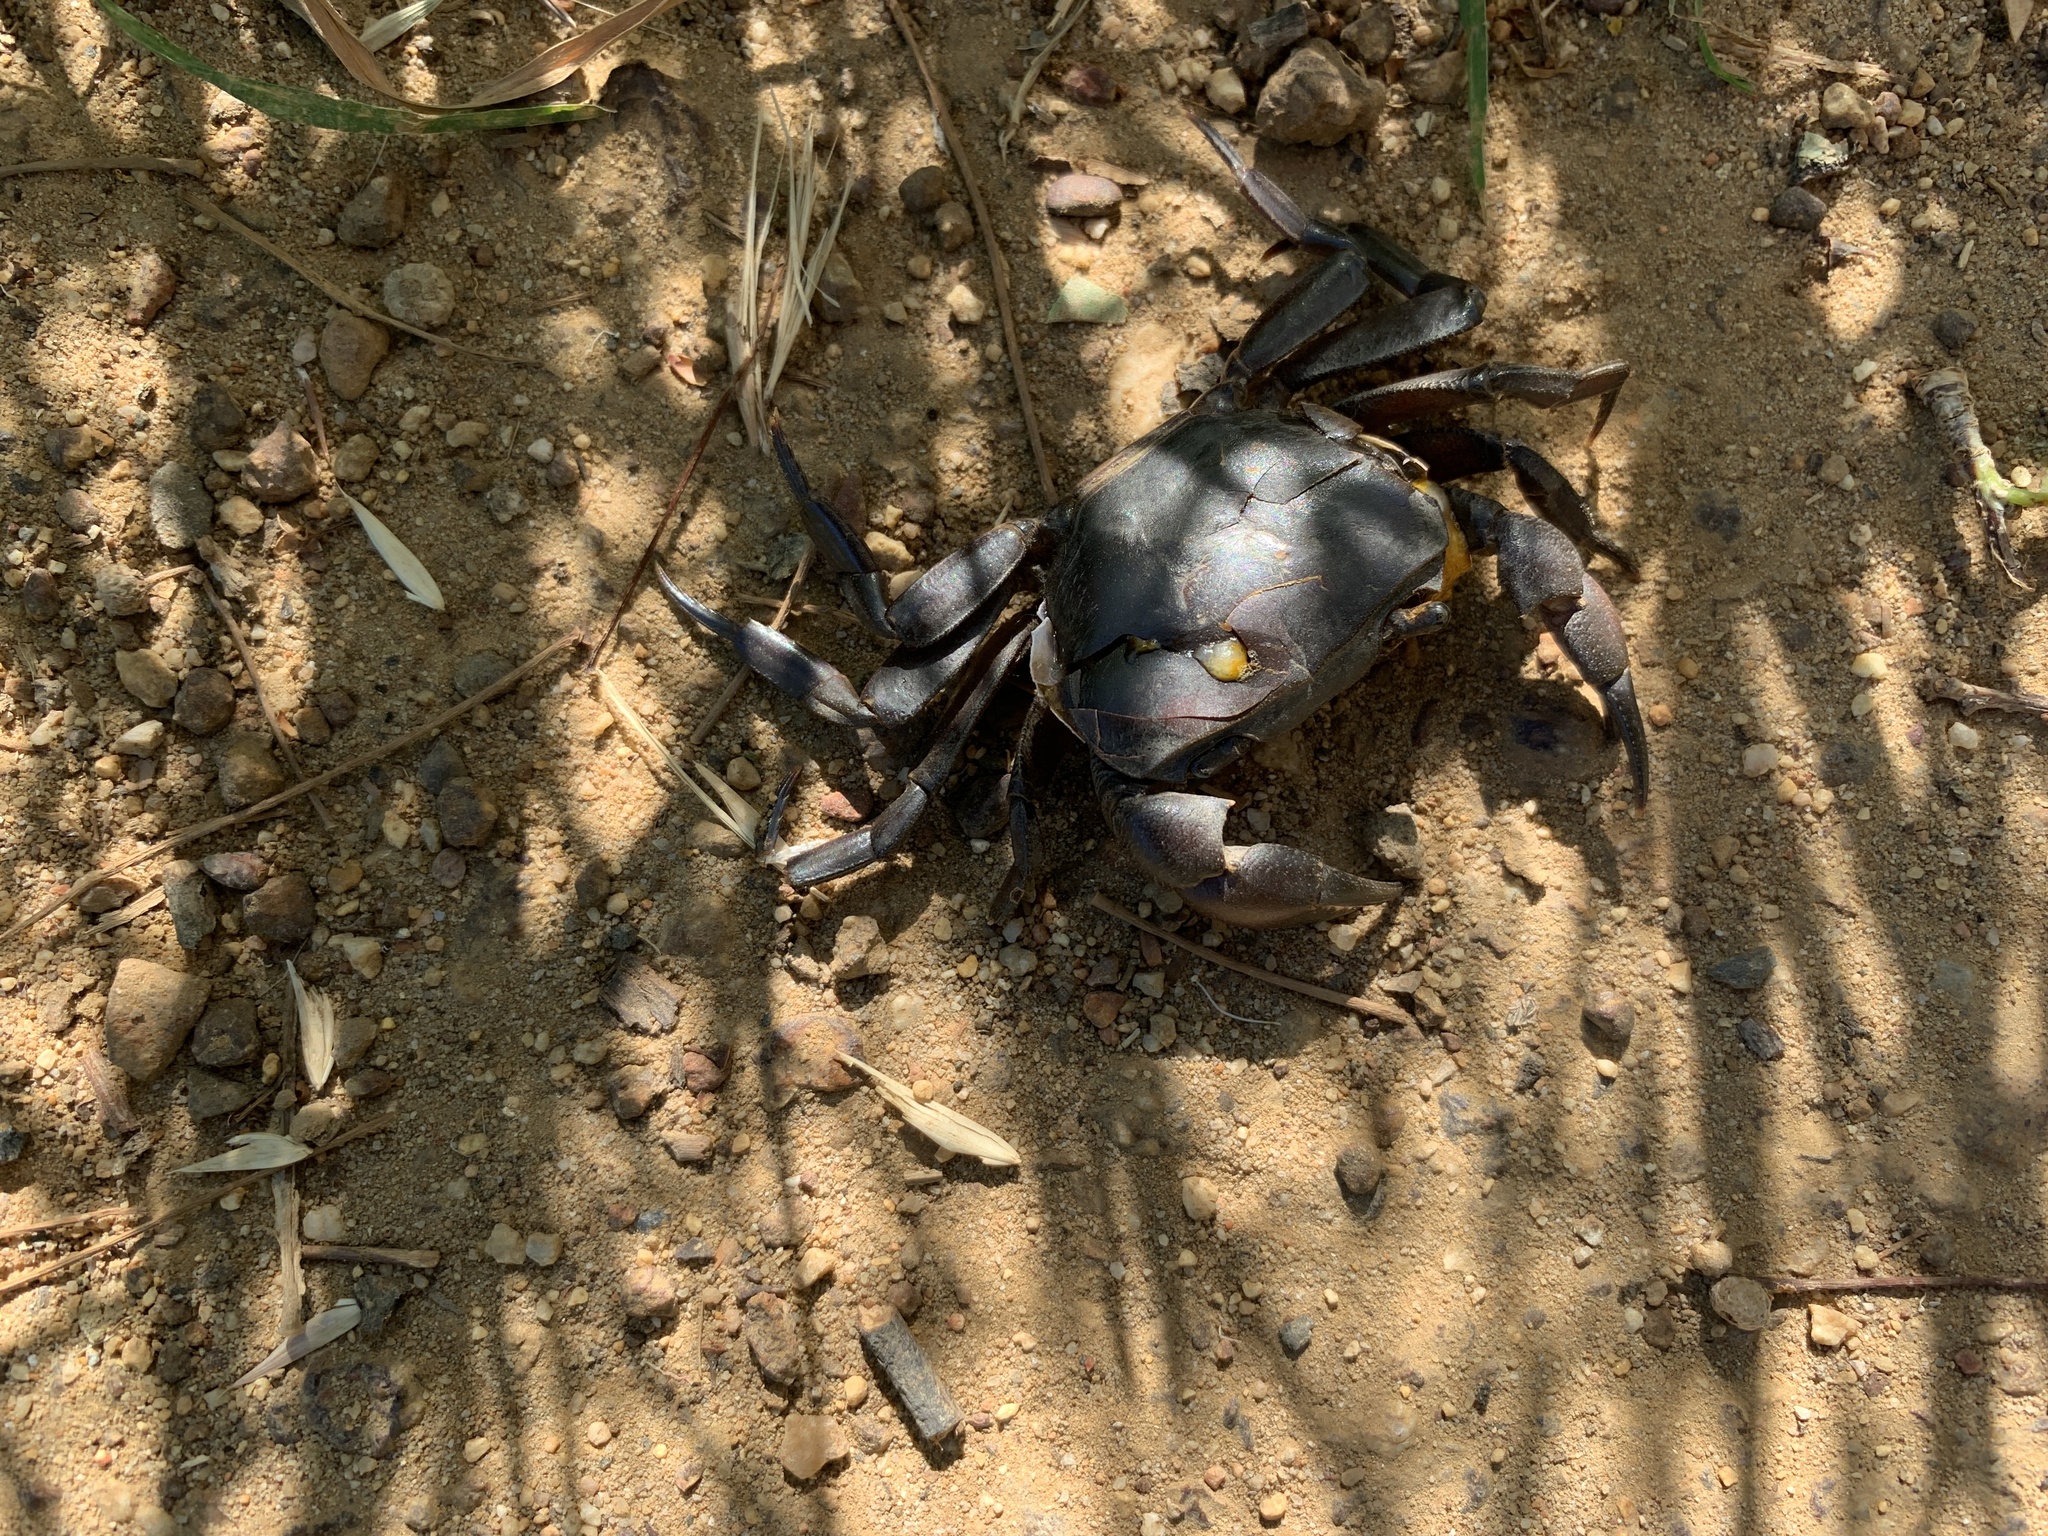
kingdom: Animalia
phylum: Arthropoda
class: Malacostraca
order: Decapoda
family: Potamonautidae
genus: Potamonautes
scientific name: Potamonautes perlatus
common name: Cape river crab
